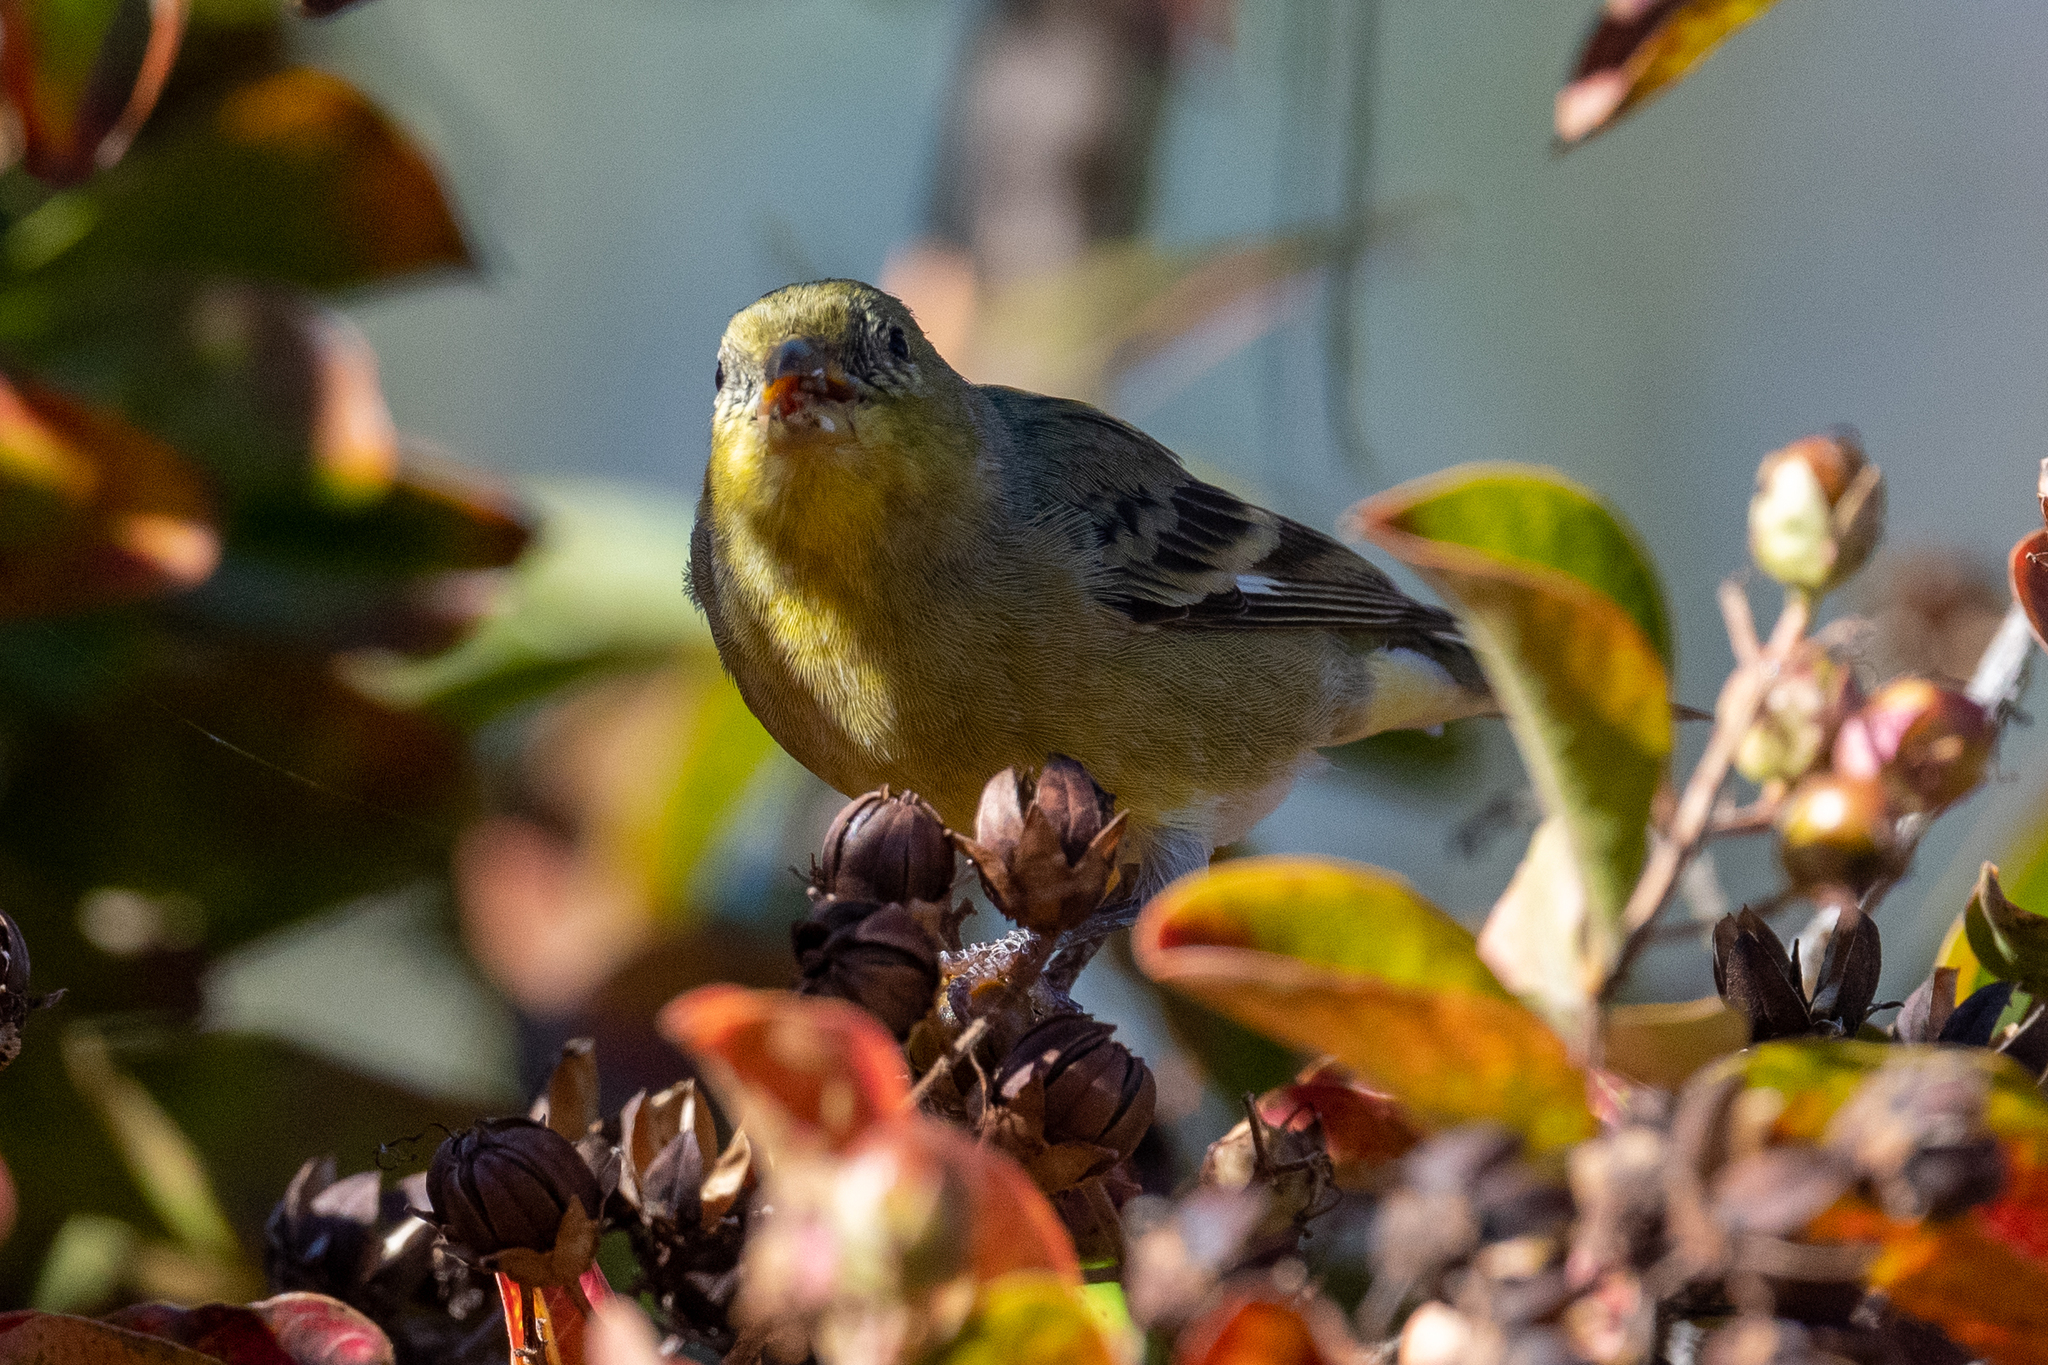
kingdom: Animalia
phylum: Chordata
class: Aves
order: Passeriformes
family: Fringillidae
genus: Spinus
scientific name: Spinus psaltria
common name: Lesser goldfinch
